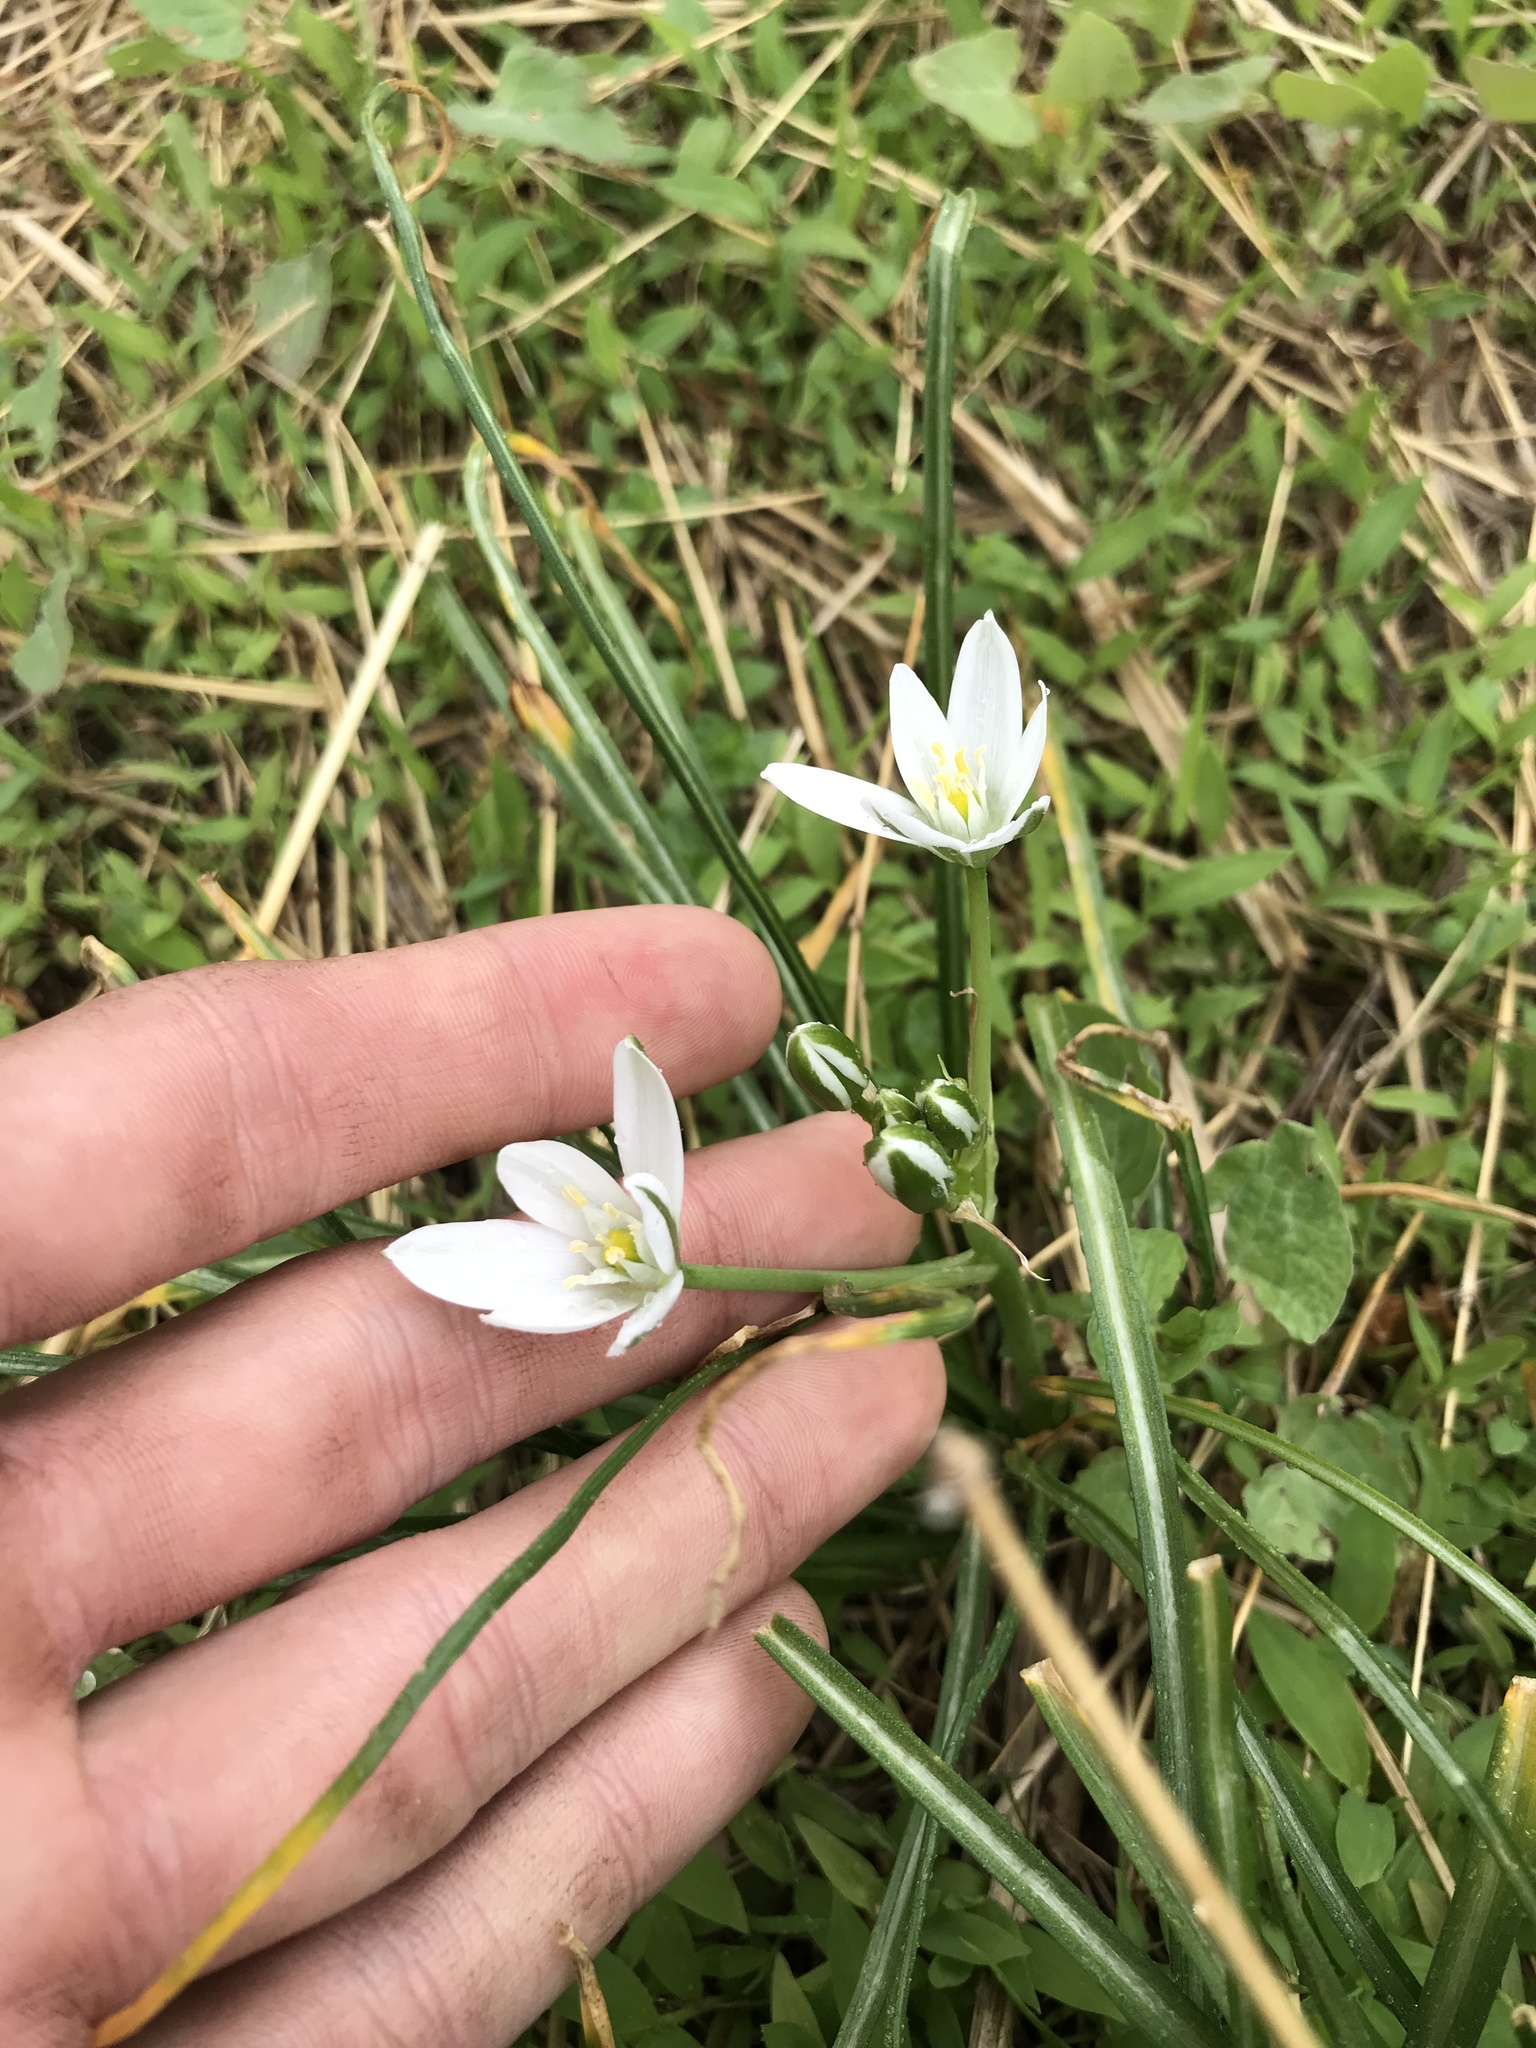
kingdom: Plantae
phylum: Tracheophyta
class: Liliopsida
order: Asparagales
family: Asparagaceae
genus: Ornithogalum
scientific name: Ornithogalum umbellatum
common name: Garden star-of-bethlehem
